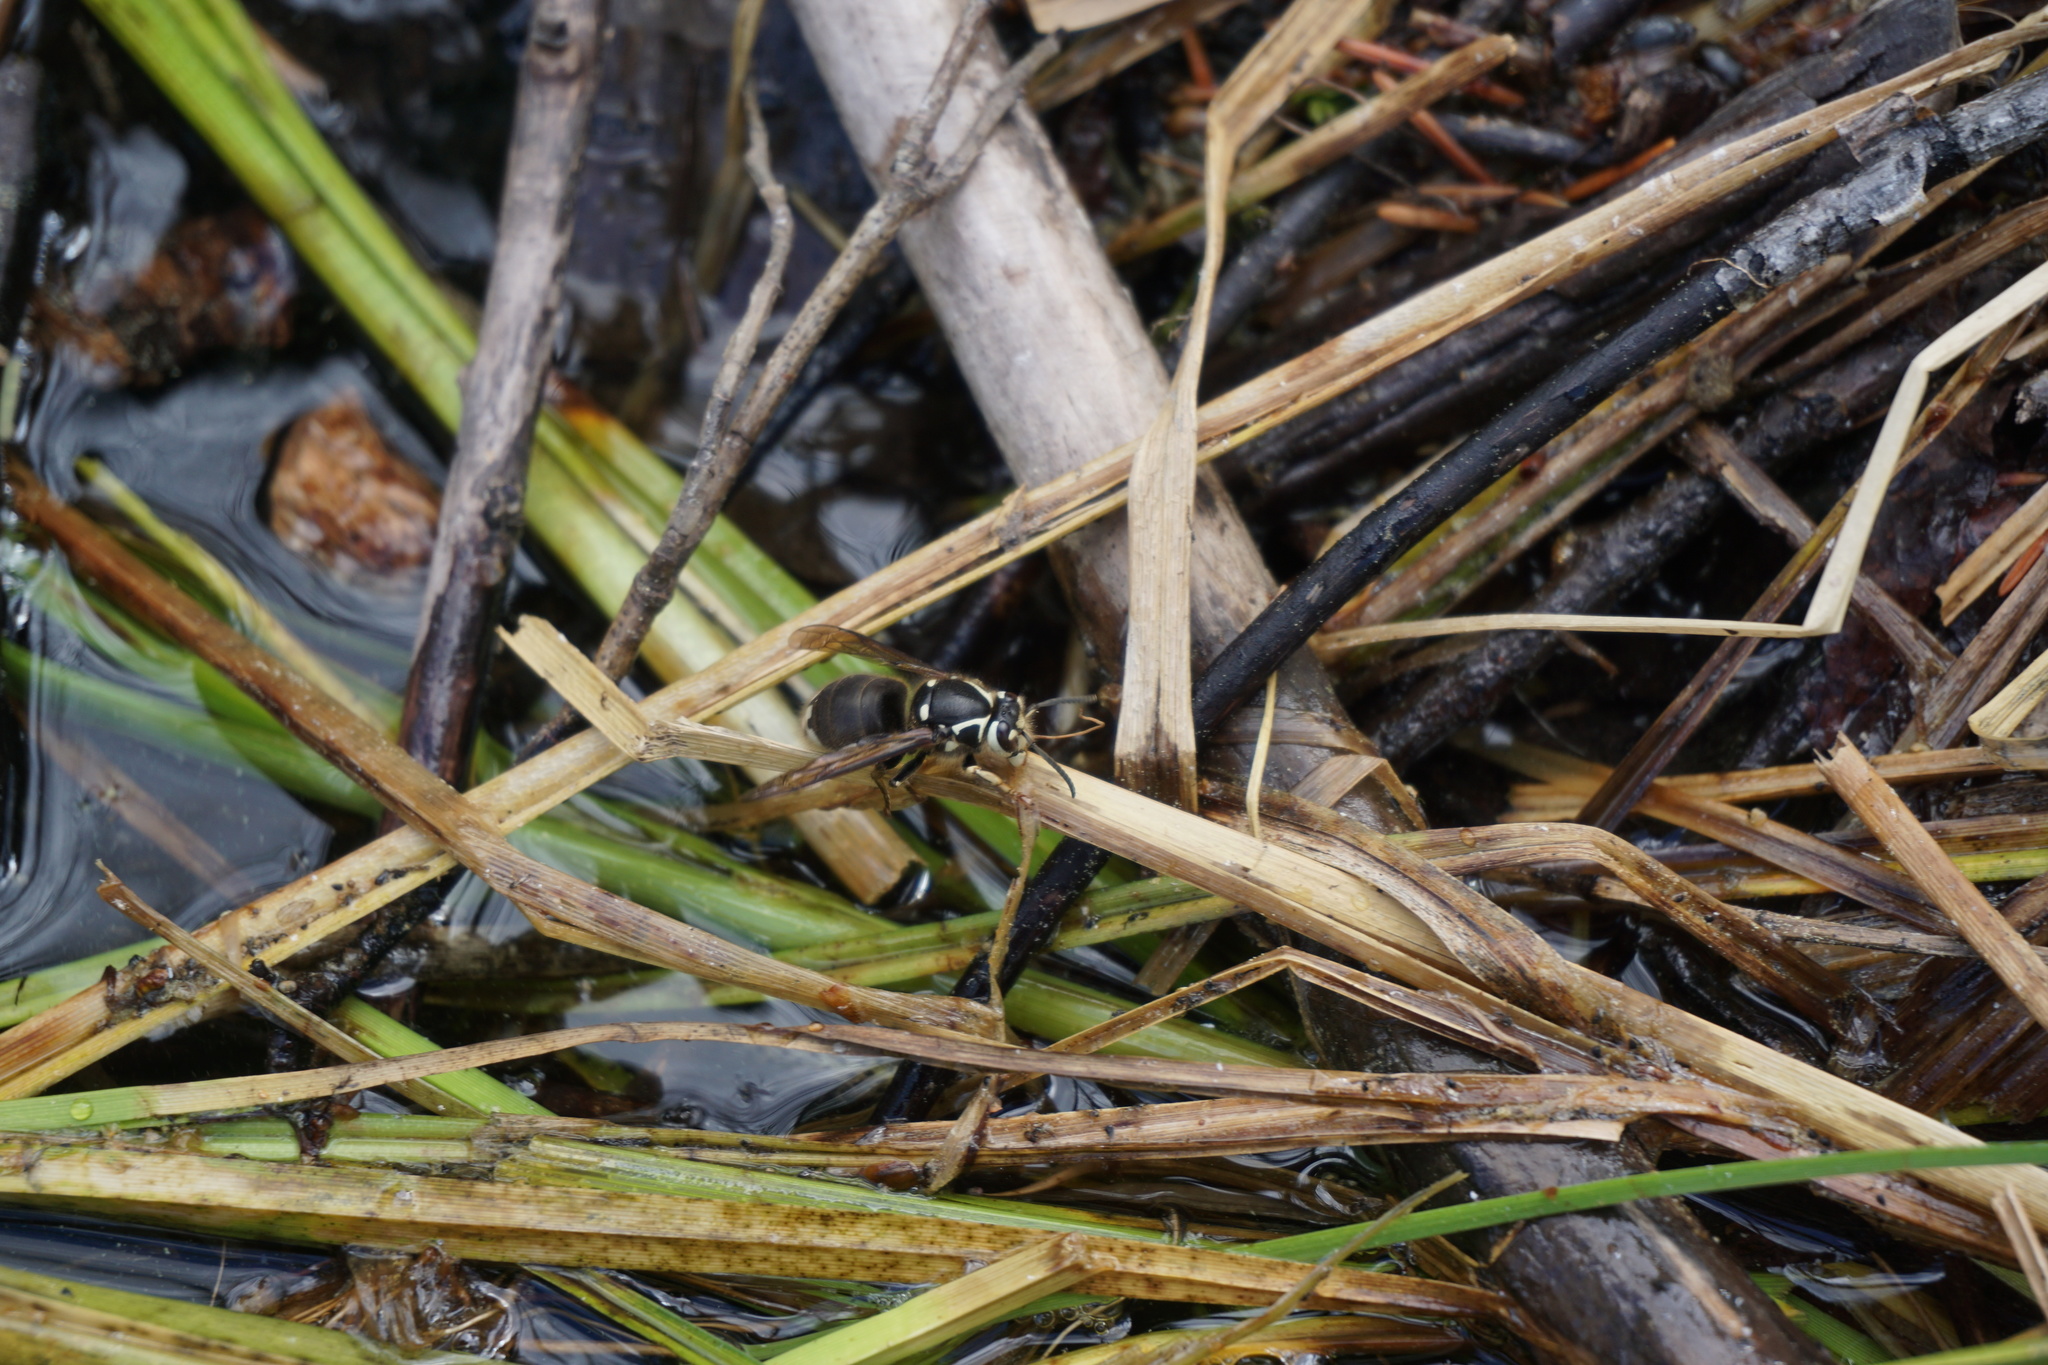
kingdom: Animalia
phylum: Arthropoda
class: Insecta
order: Hymenoptera
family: Vespidae
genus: Dolichovespula
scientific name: Dolichovespula maculata
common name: Bald-faced hornet
